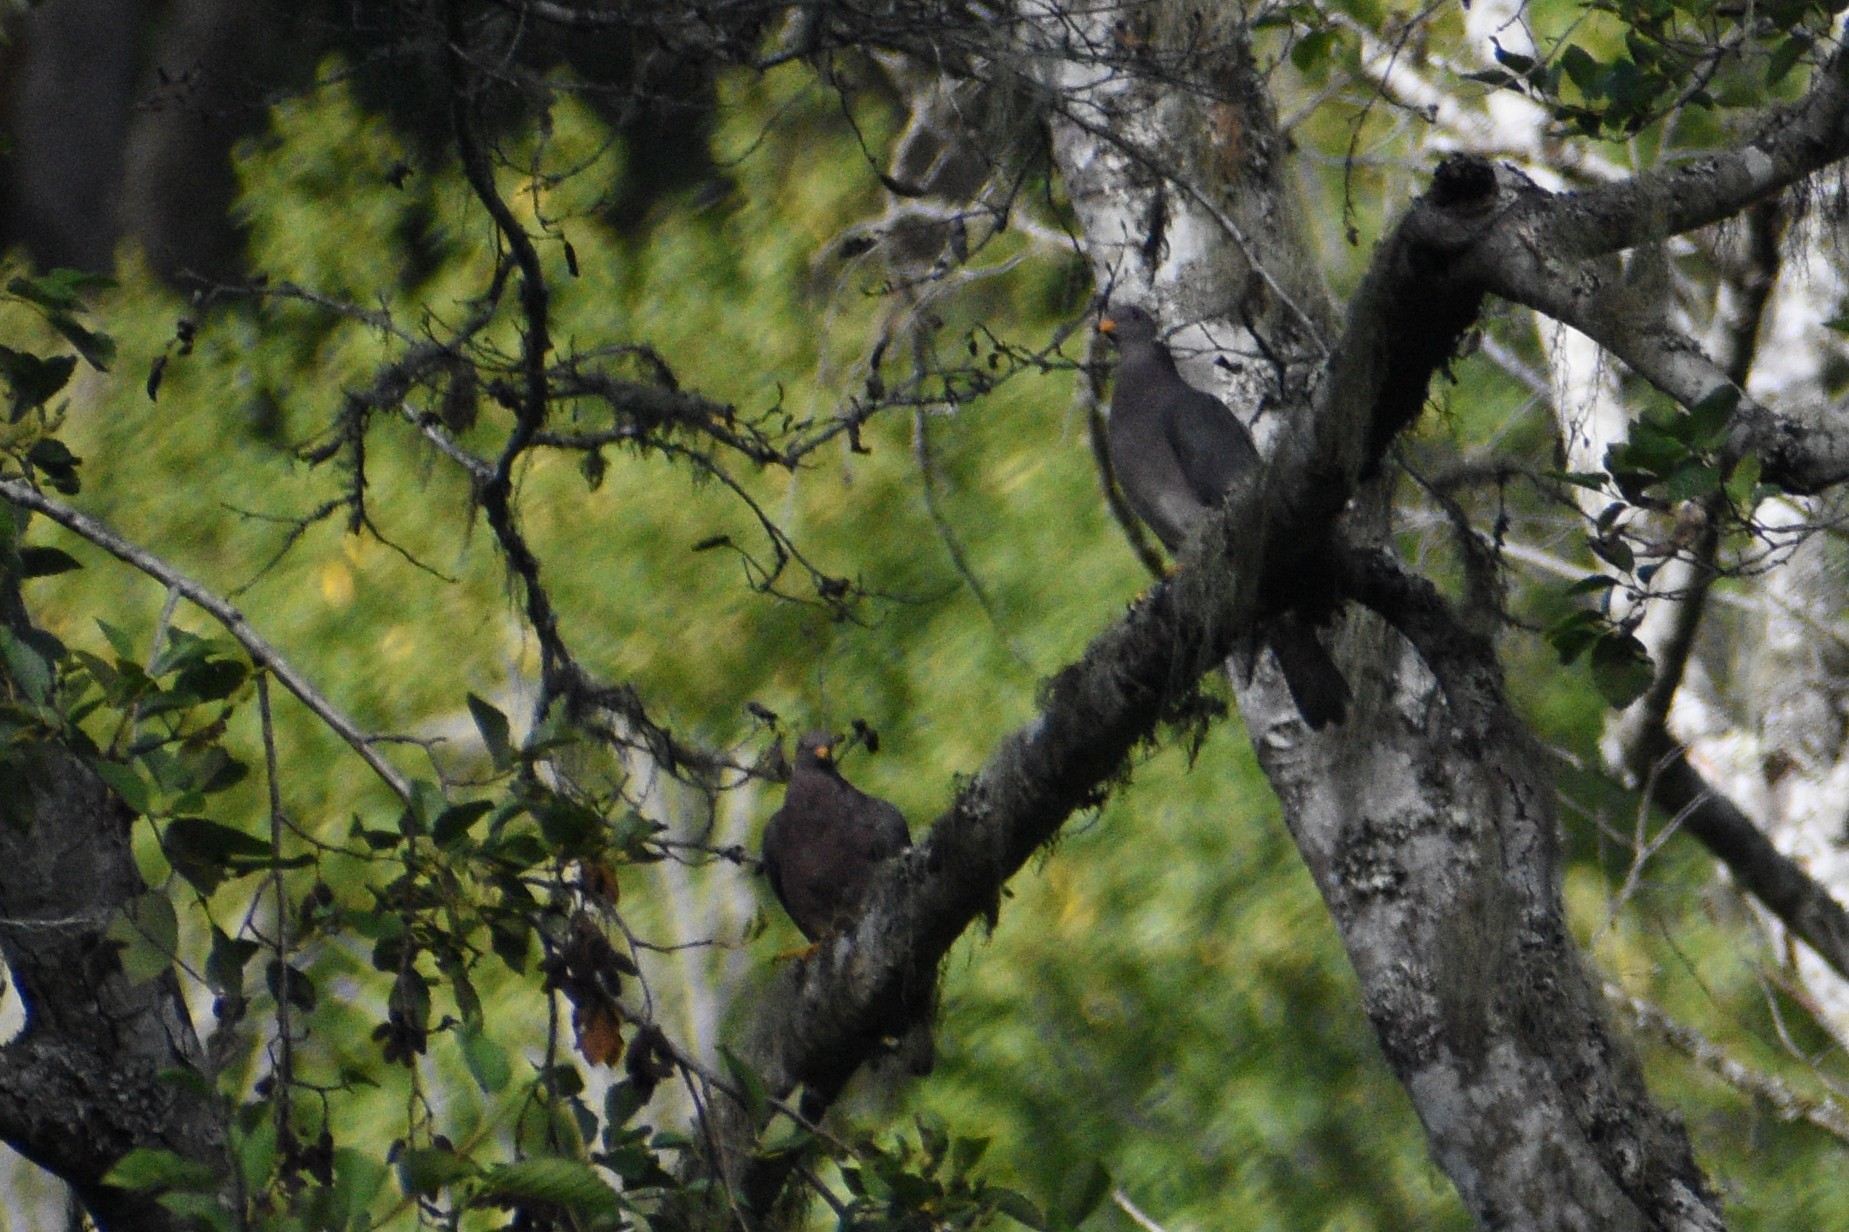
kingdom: Animalia
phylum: Chordata
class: Aves
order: Columbiformes
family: Columbidae
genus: Patagioenas
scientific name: Patagioenas fasciata
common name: Band-tailed pigeon
